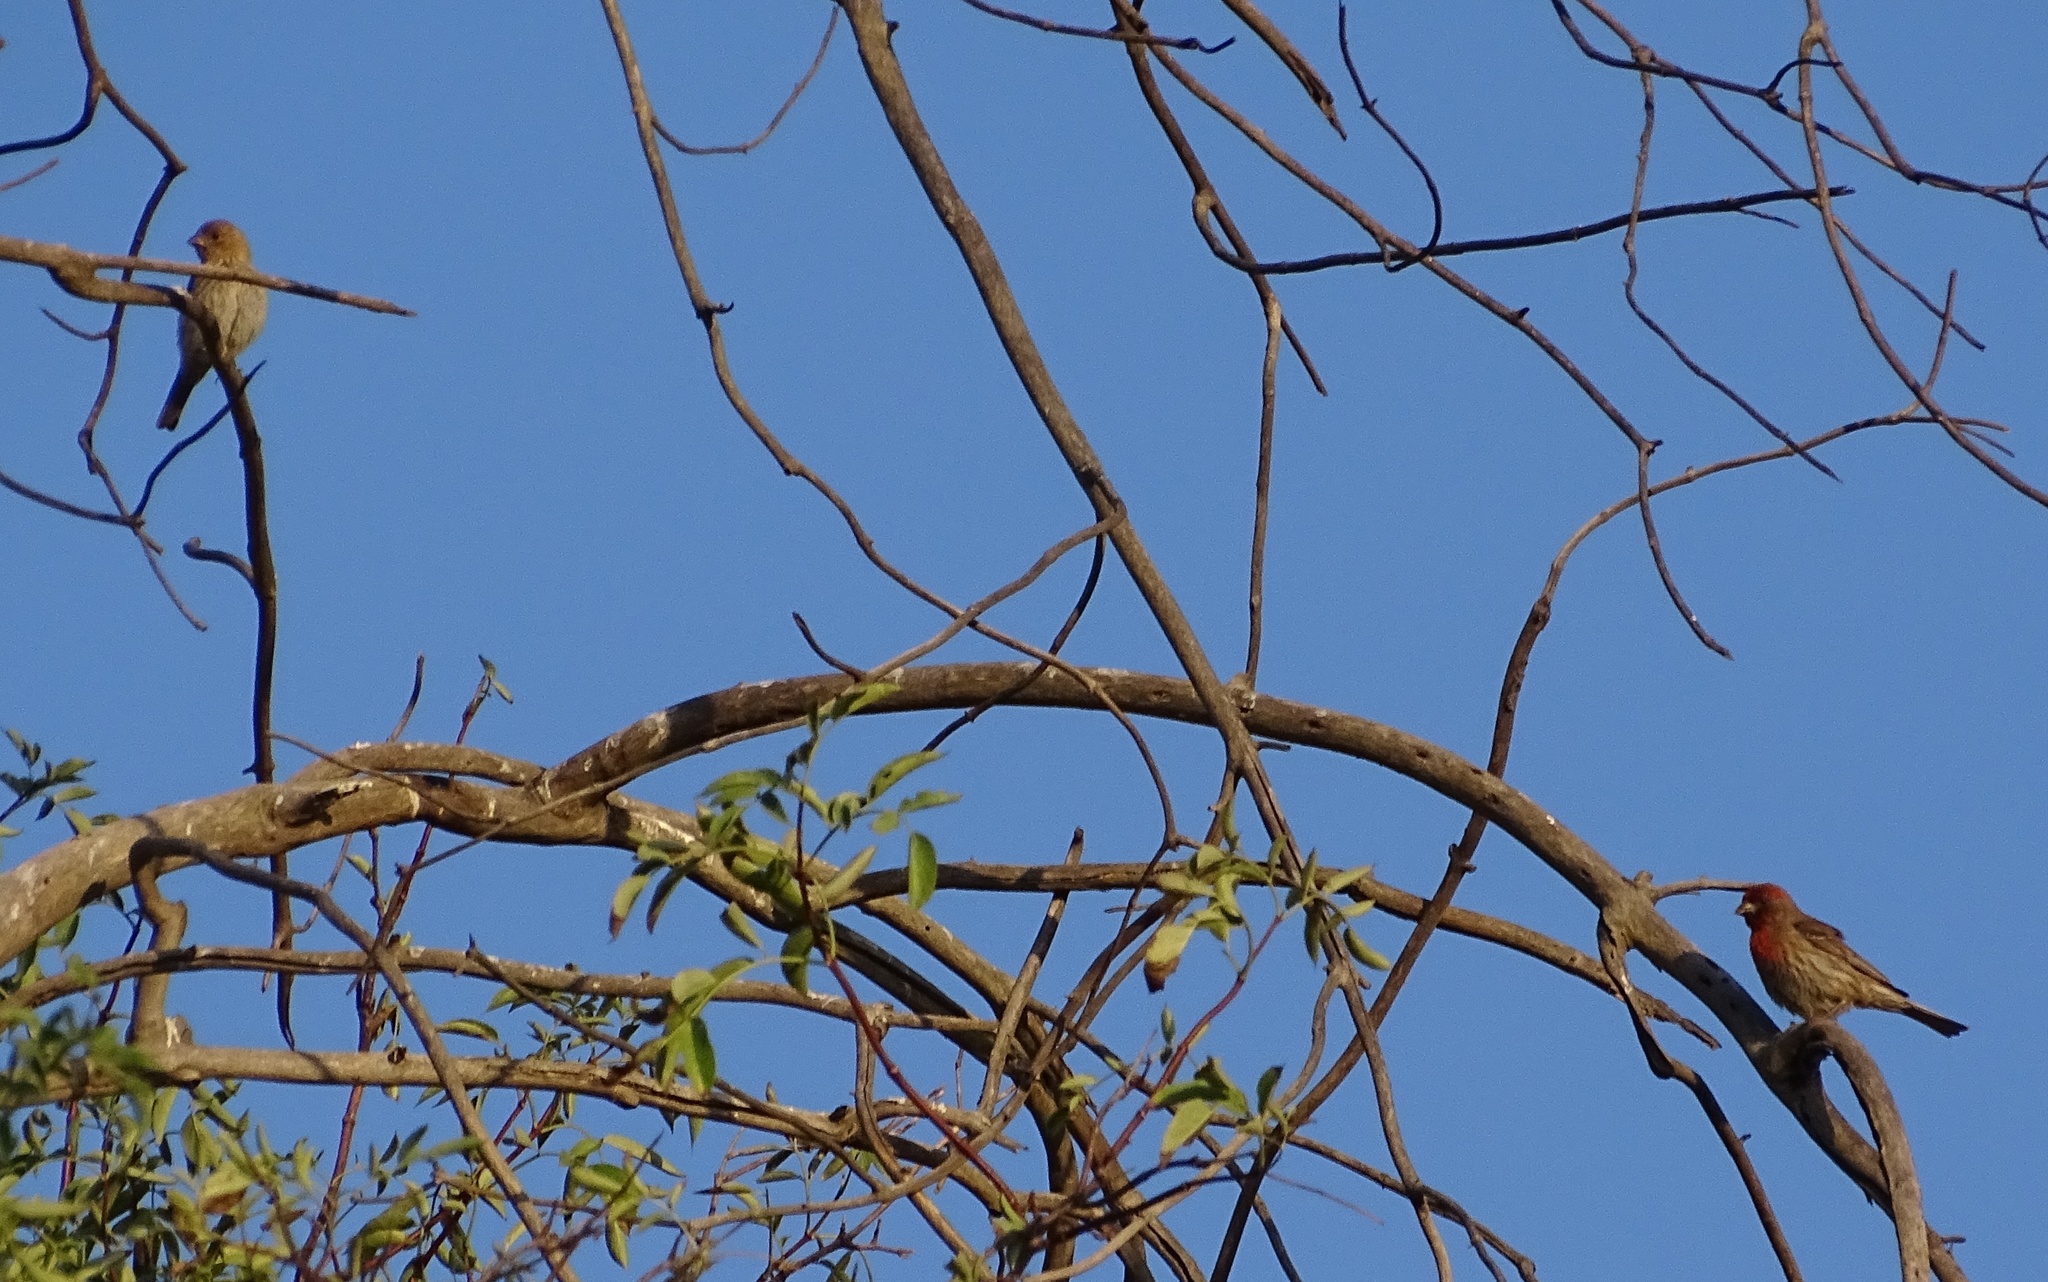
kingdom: Animalia
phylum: Chordata
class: Aves
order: Passeriformes
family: Fringillidae
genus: Haemorhous
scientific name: Haemorhous mexicanus
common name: House finch
